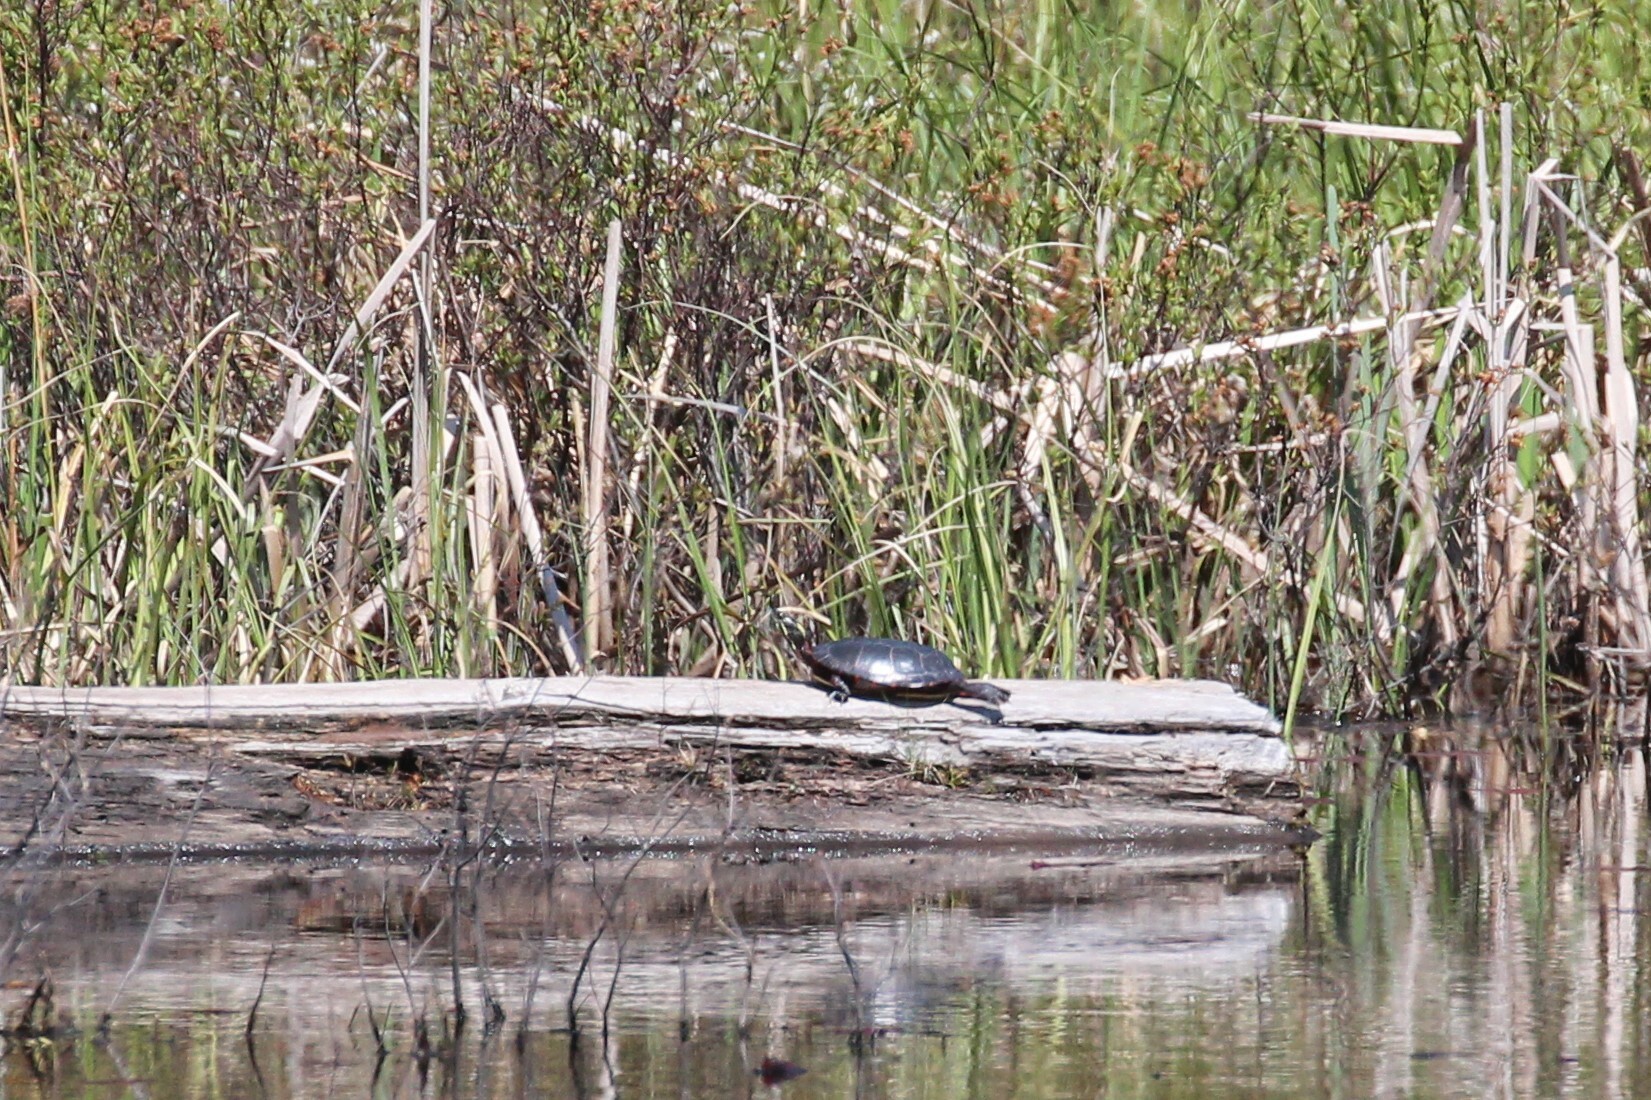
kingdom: Animalia
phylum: Chordata
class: Testudines
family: Emydidae
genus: Chrysemys
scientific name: Chrysemys picta
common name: Painted turtle
